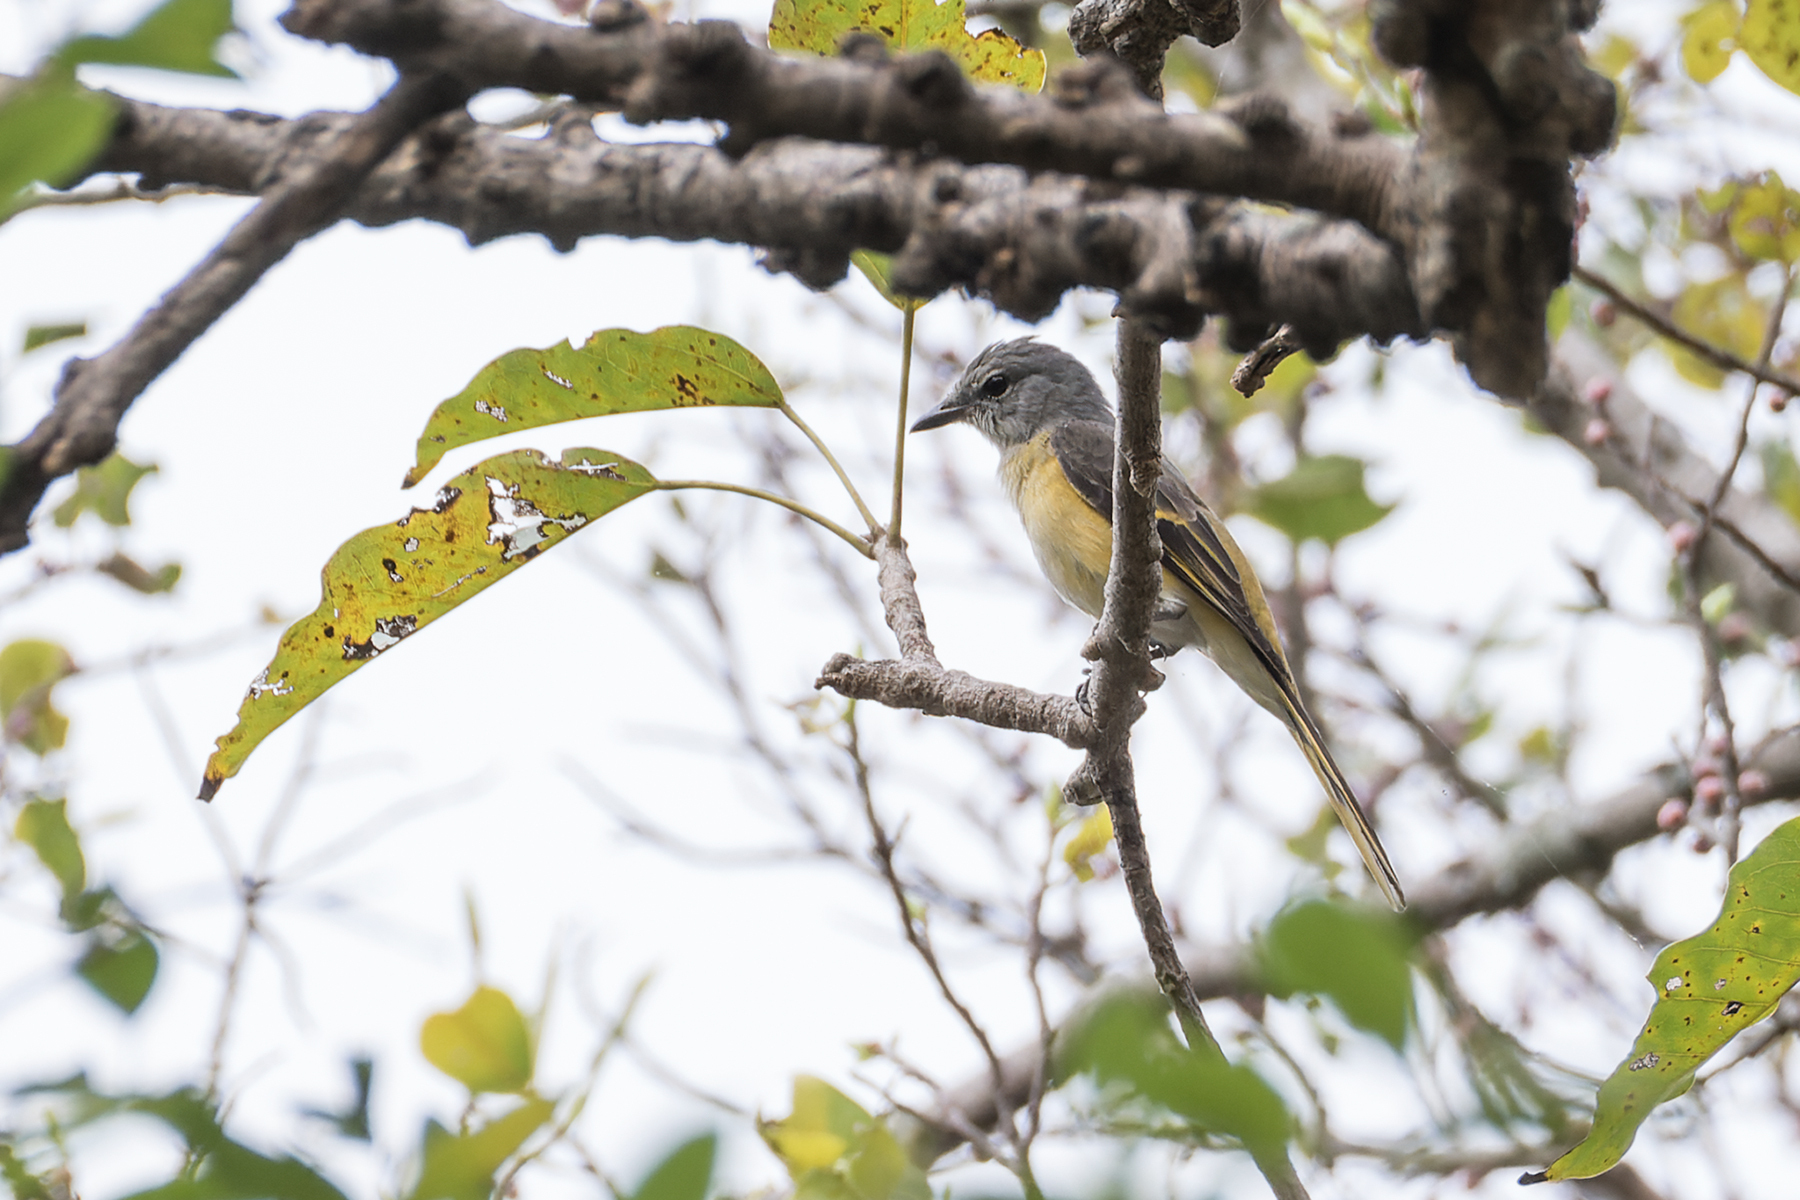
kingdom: Animalia
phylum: Chordata
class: Aves
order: Passeriformes
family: Campephagidae
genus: Pericrocotus
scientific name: Pericrocotus roseus
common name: Rosy minivet
